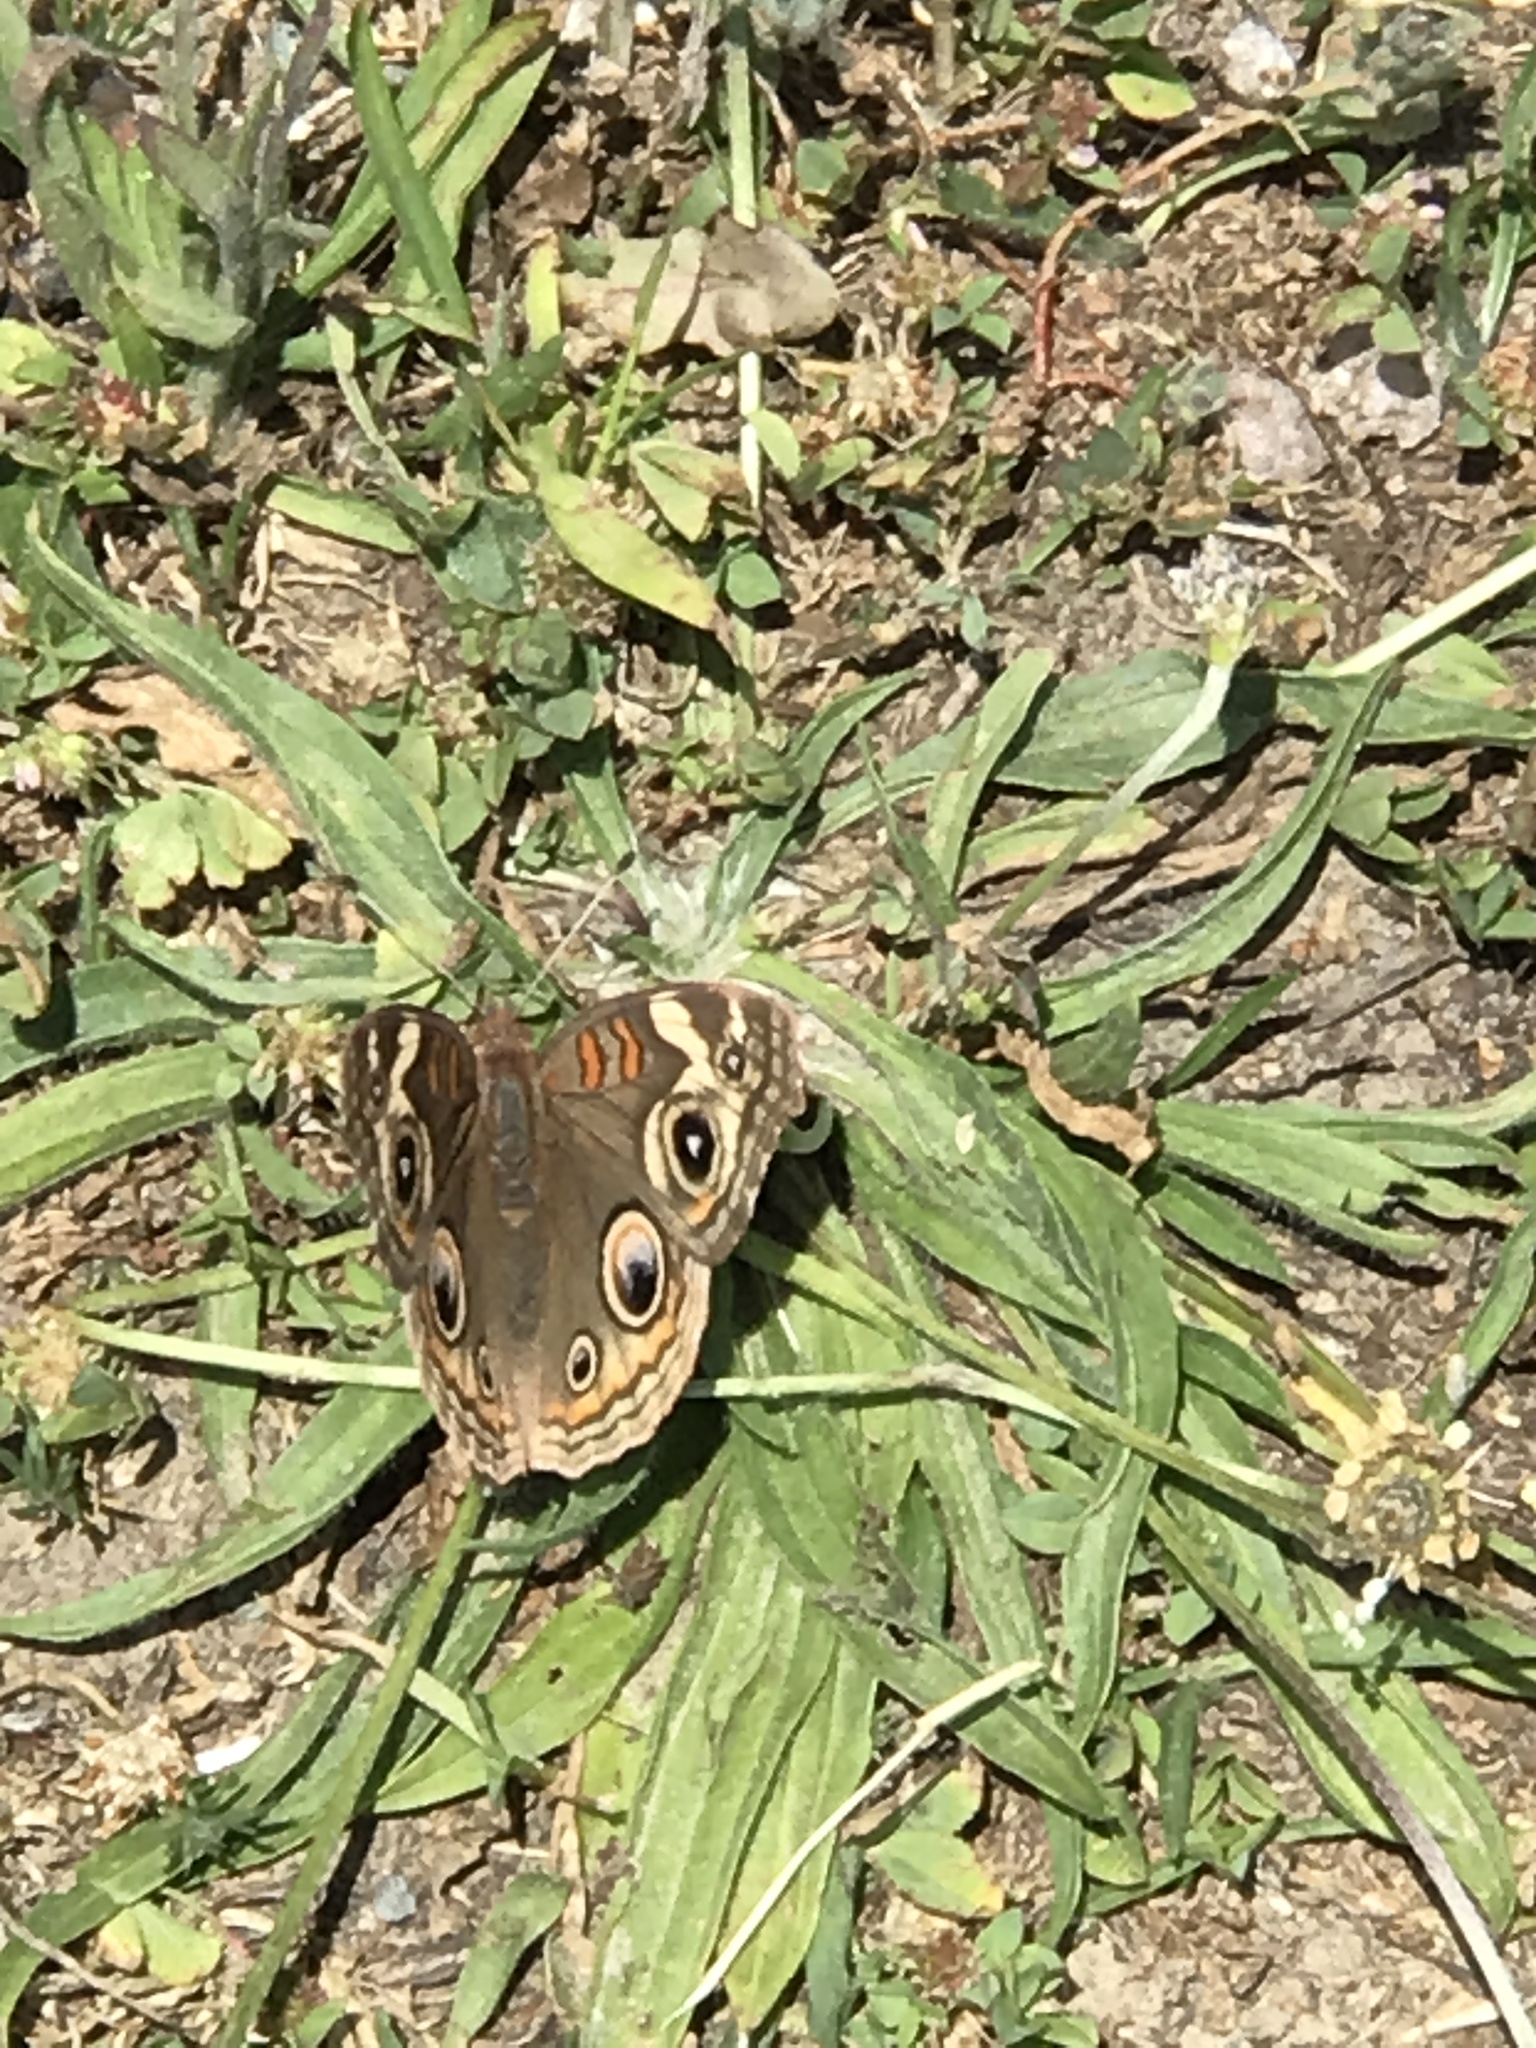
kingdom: Animalia
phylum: Arthropoda
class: Insecta
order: Lepidoptera
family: Nymphalidae
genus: Junonia
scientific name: Junonia grisea
